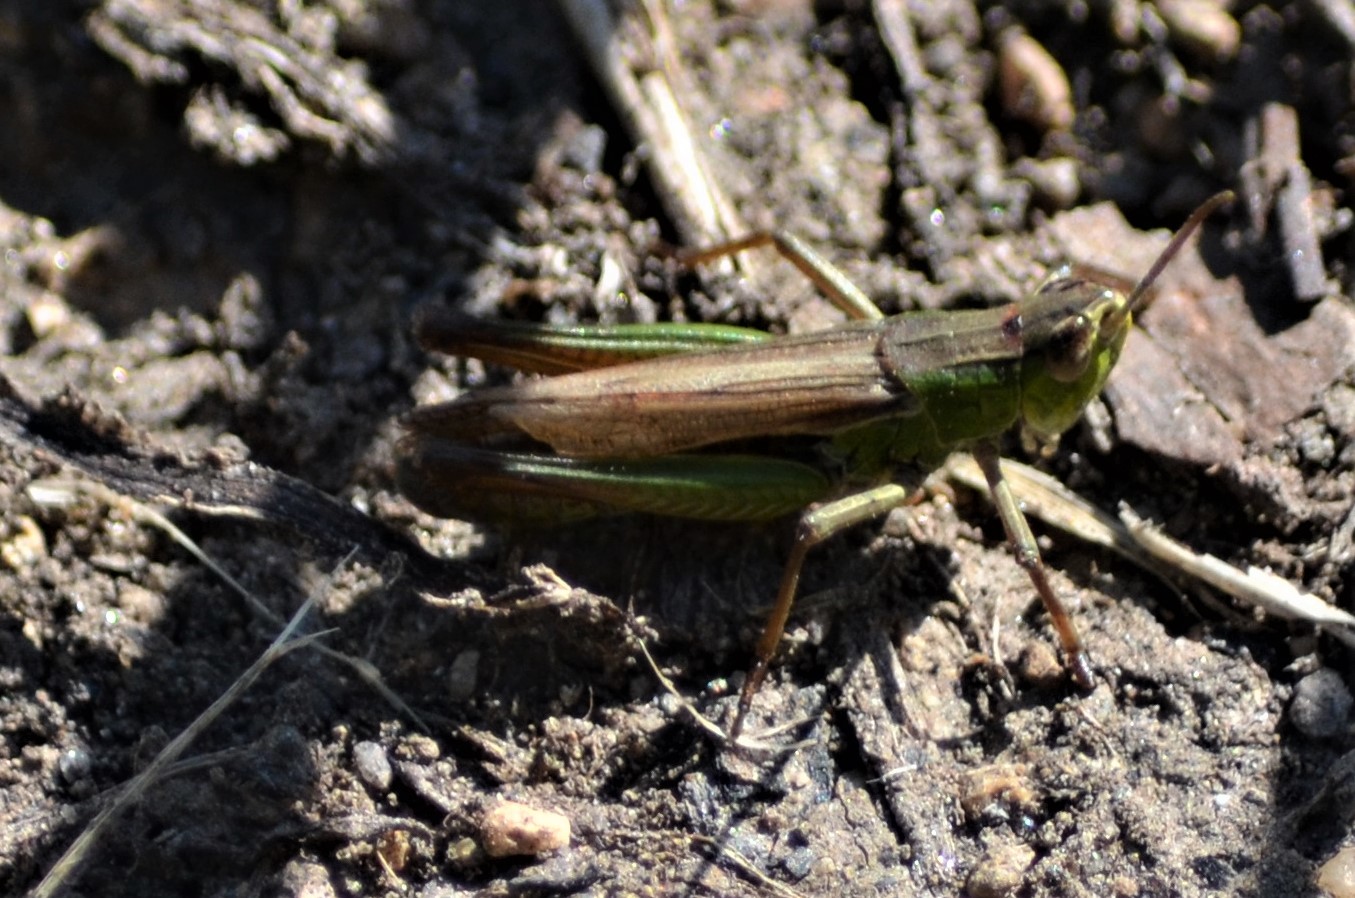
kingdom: Animalia
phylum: Arthropoda
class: Insecta
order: Orthoptera
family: Acrididae
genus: Pseudochorthippus
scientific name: Pseudochorthippus parallelus
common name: Meadow grasshopper
